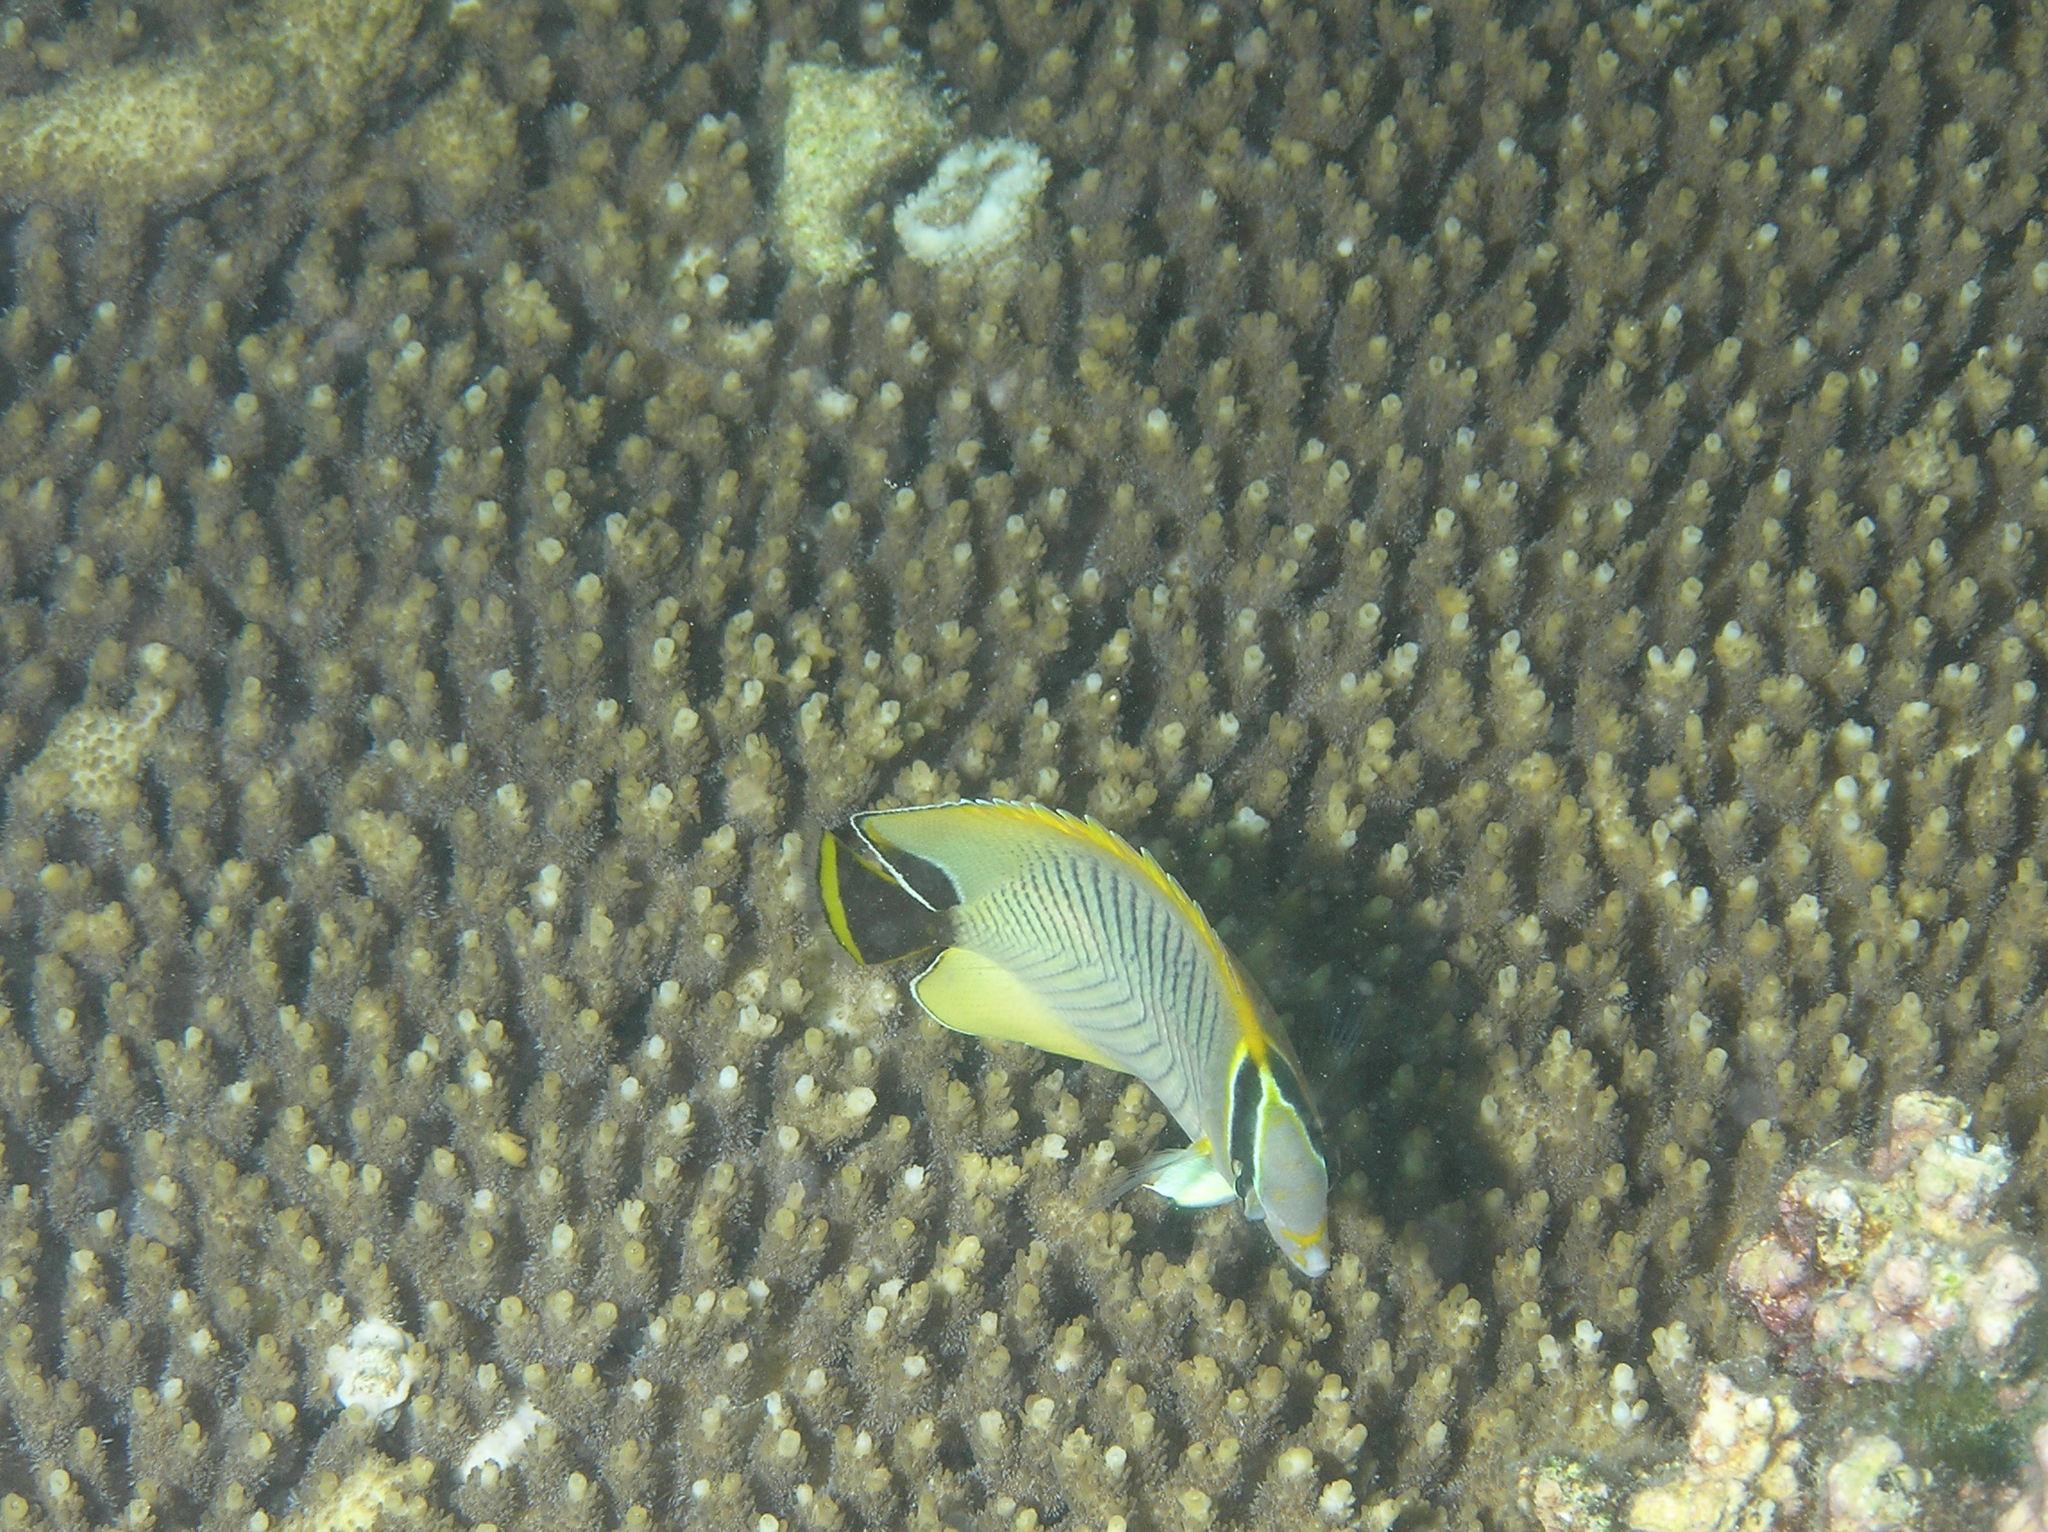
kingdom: Animalia
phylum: Chordata
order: Perciformes
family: Chaetodontidae
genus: Chaetodon
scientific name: Chaetodon trifascialis
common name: Chevroned butterflyfish
